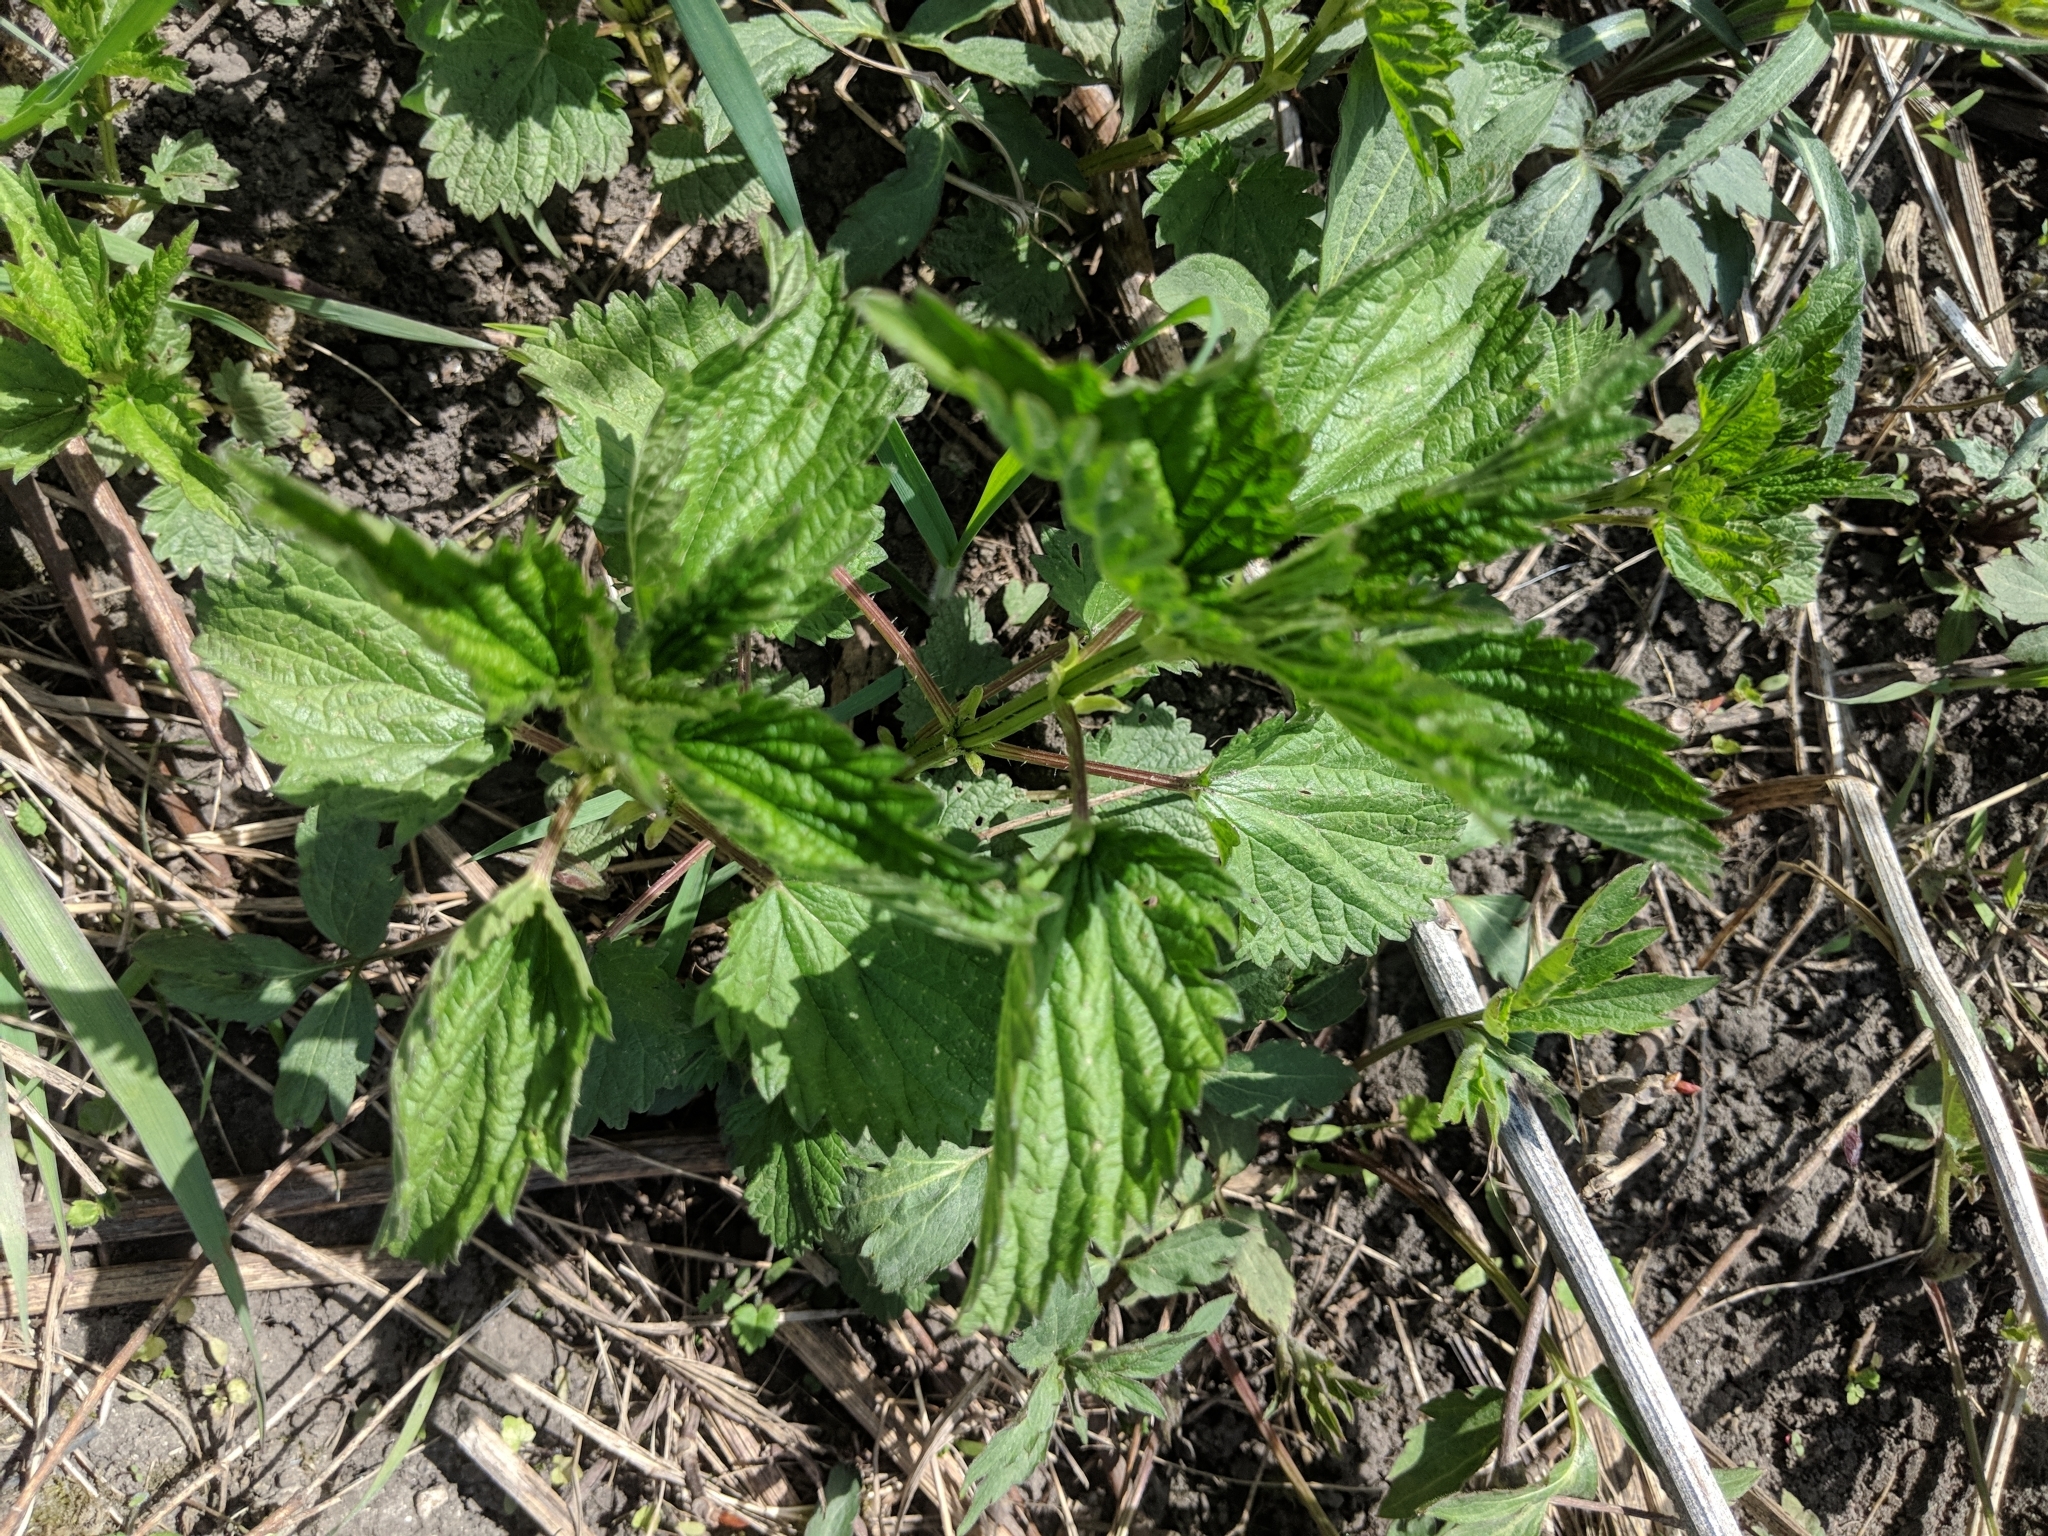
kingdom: Plantae
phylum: Tracheophyta
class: Magnoliopsida
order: Rosales
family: Urticaceae
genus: Urtica
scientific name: Urtica dioica
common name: Common nettle
